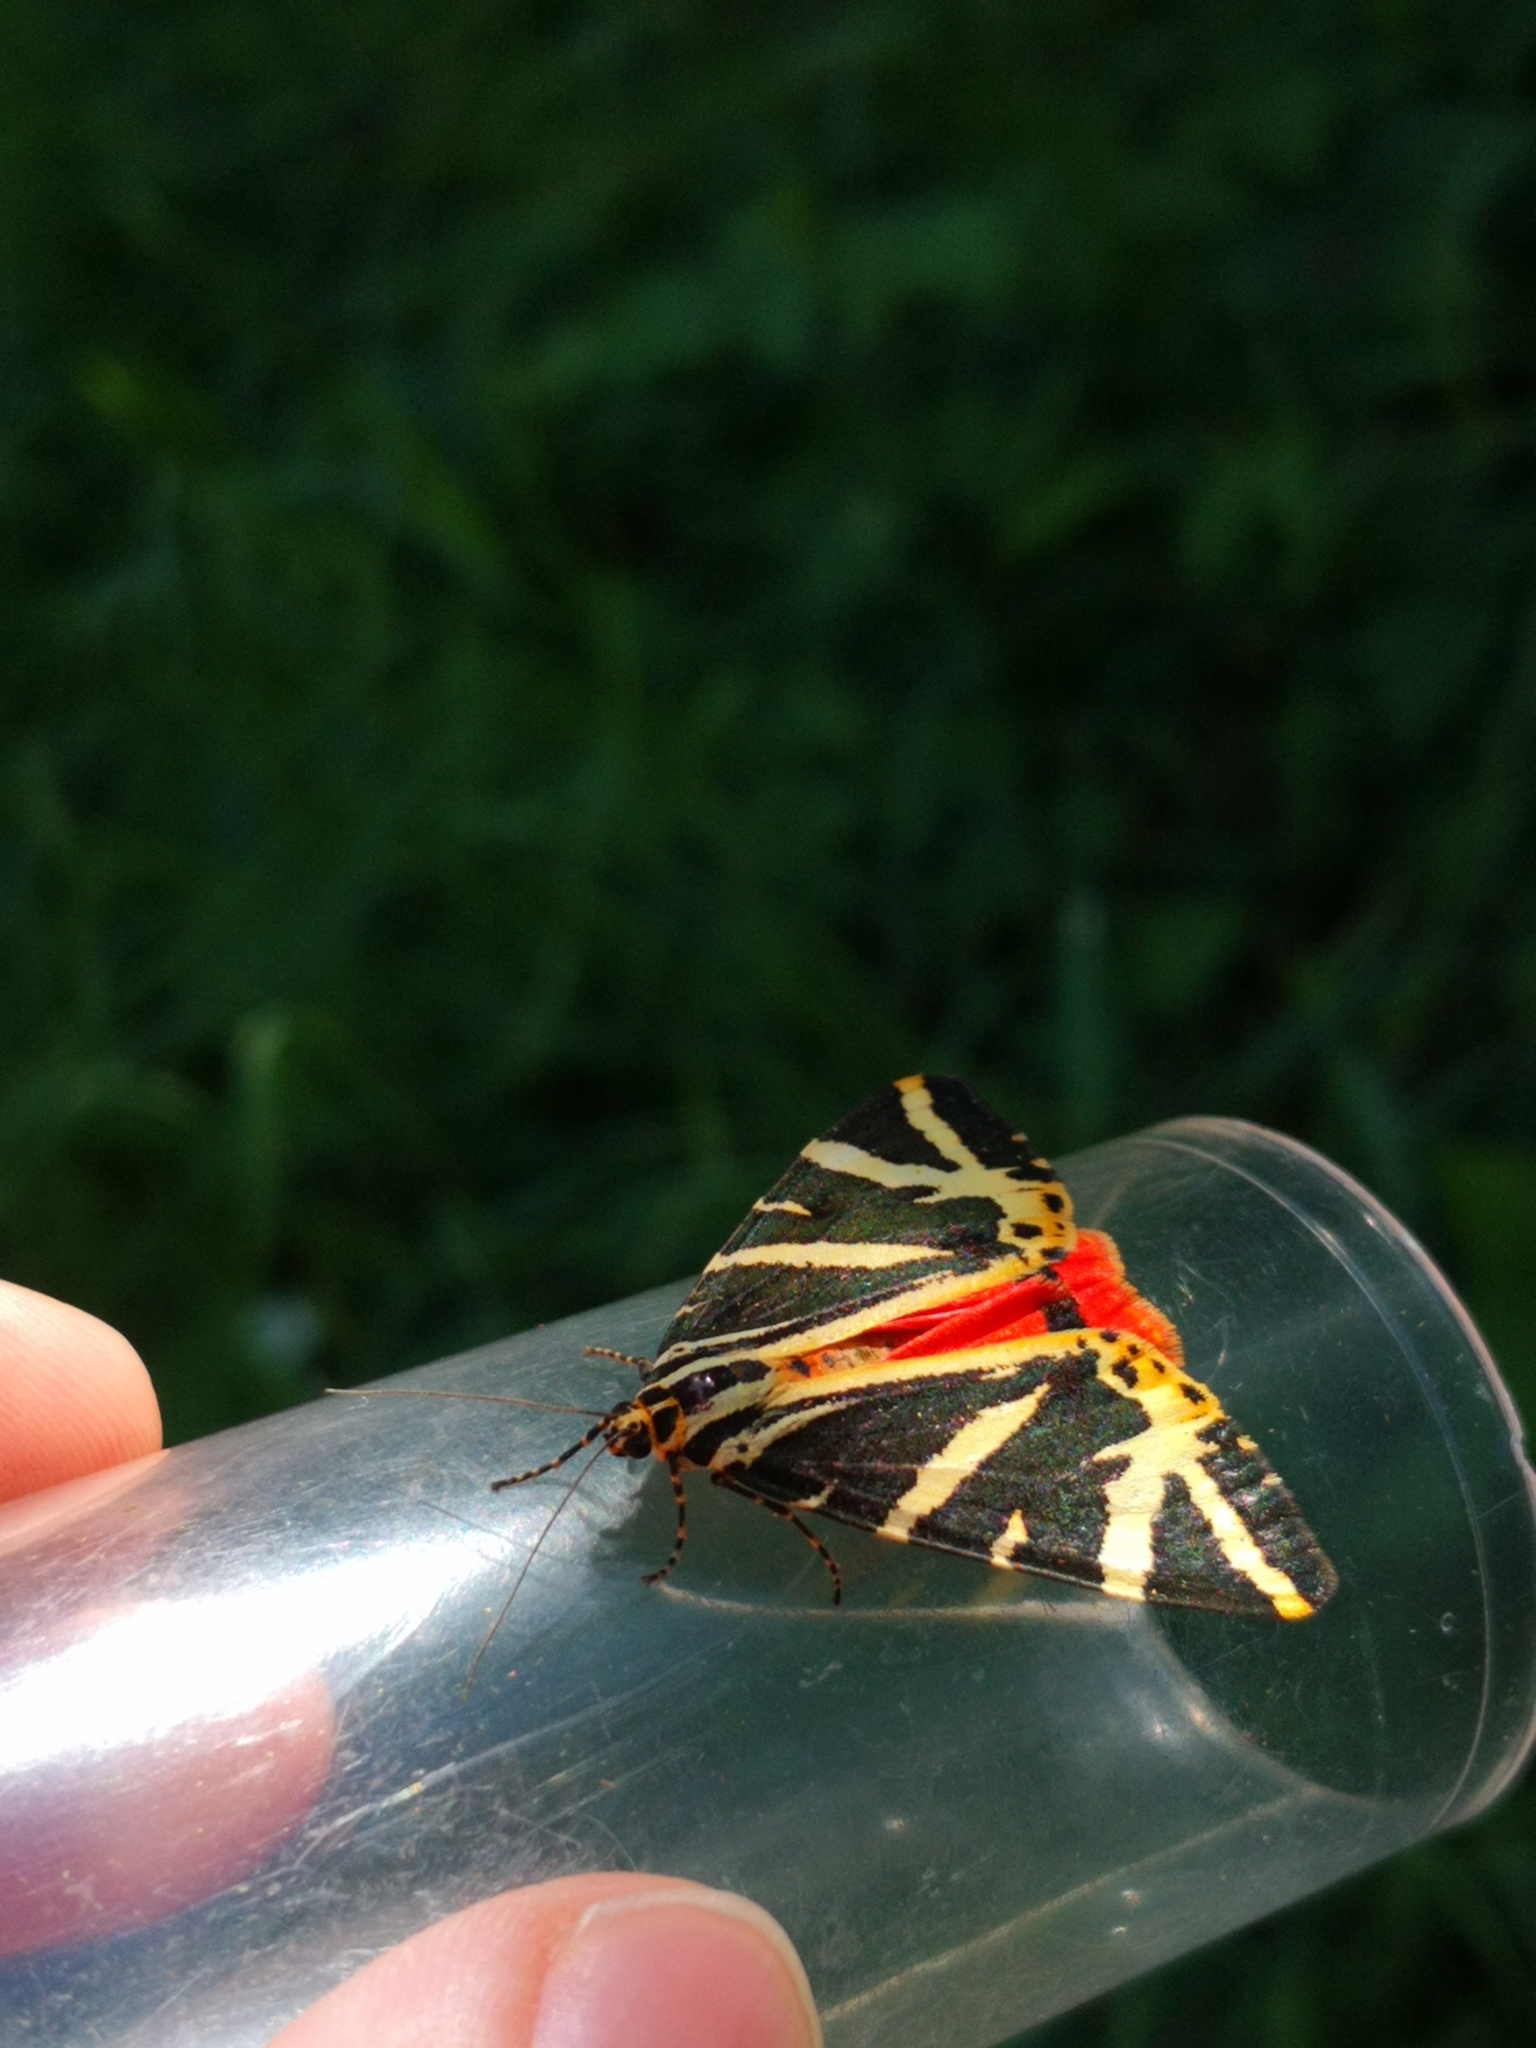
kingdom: Animalia
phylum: Arthropoda
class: Insecta
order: Lepidoptera
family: Erebidae
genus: Euplagia
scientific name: Euplagia quadripunctaria
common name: Jersey tiger
